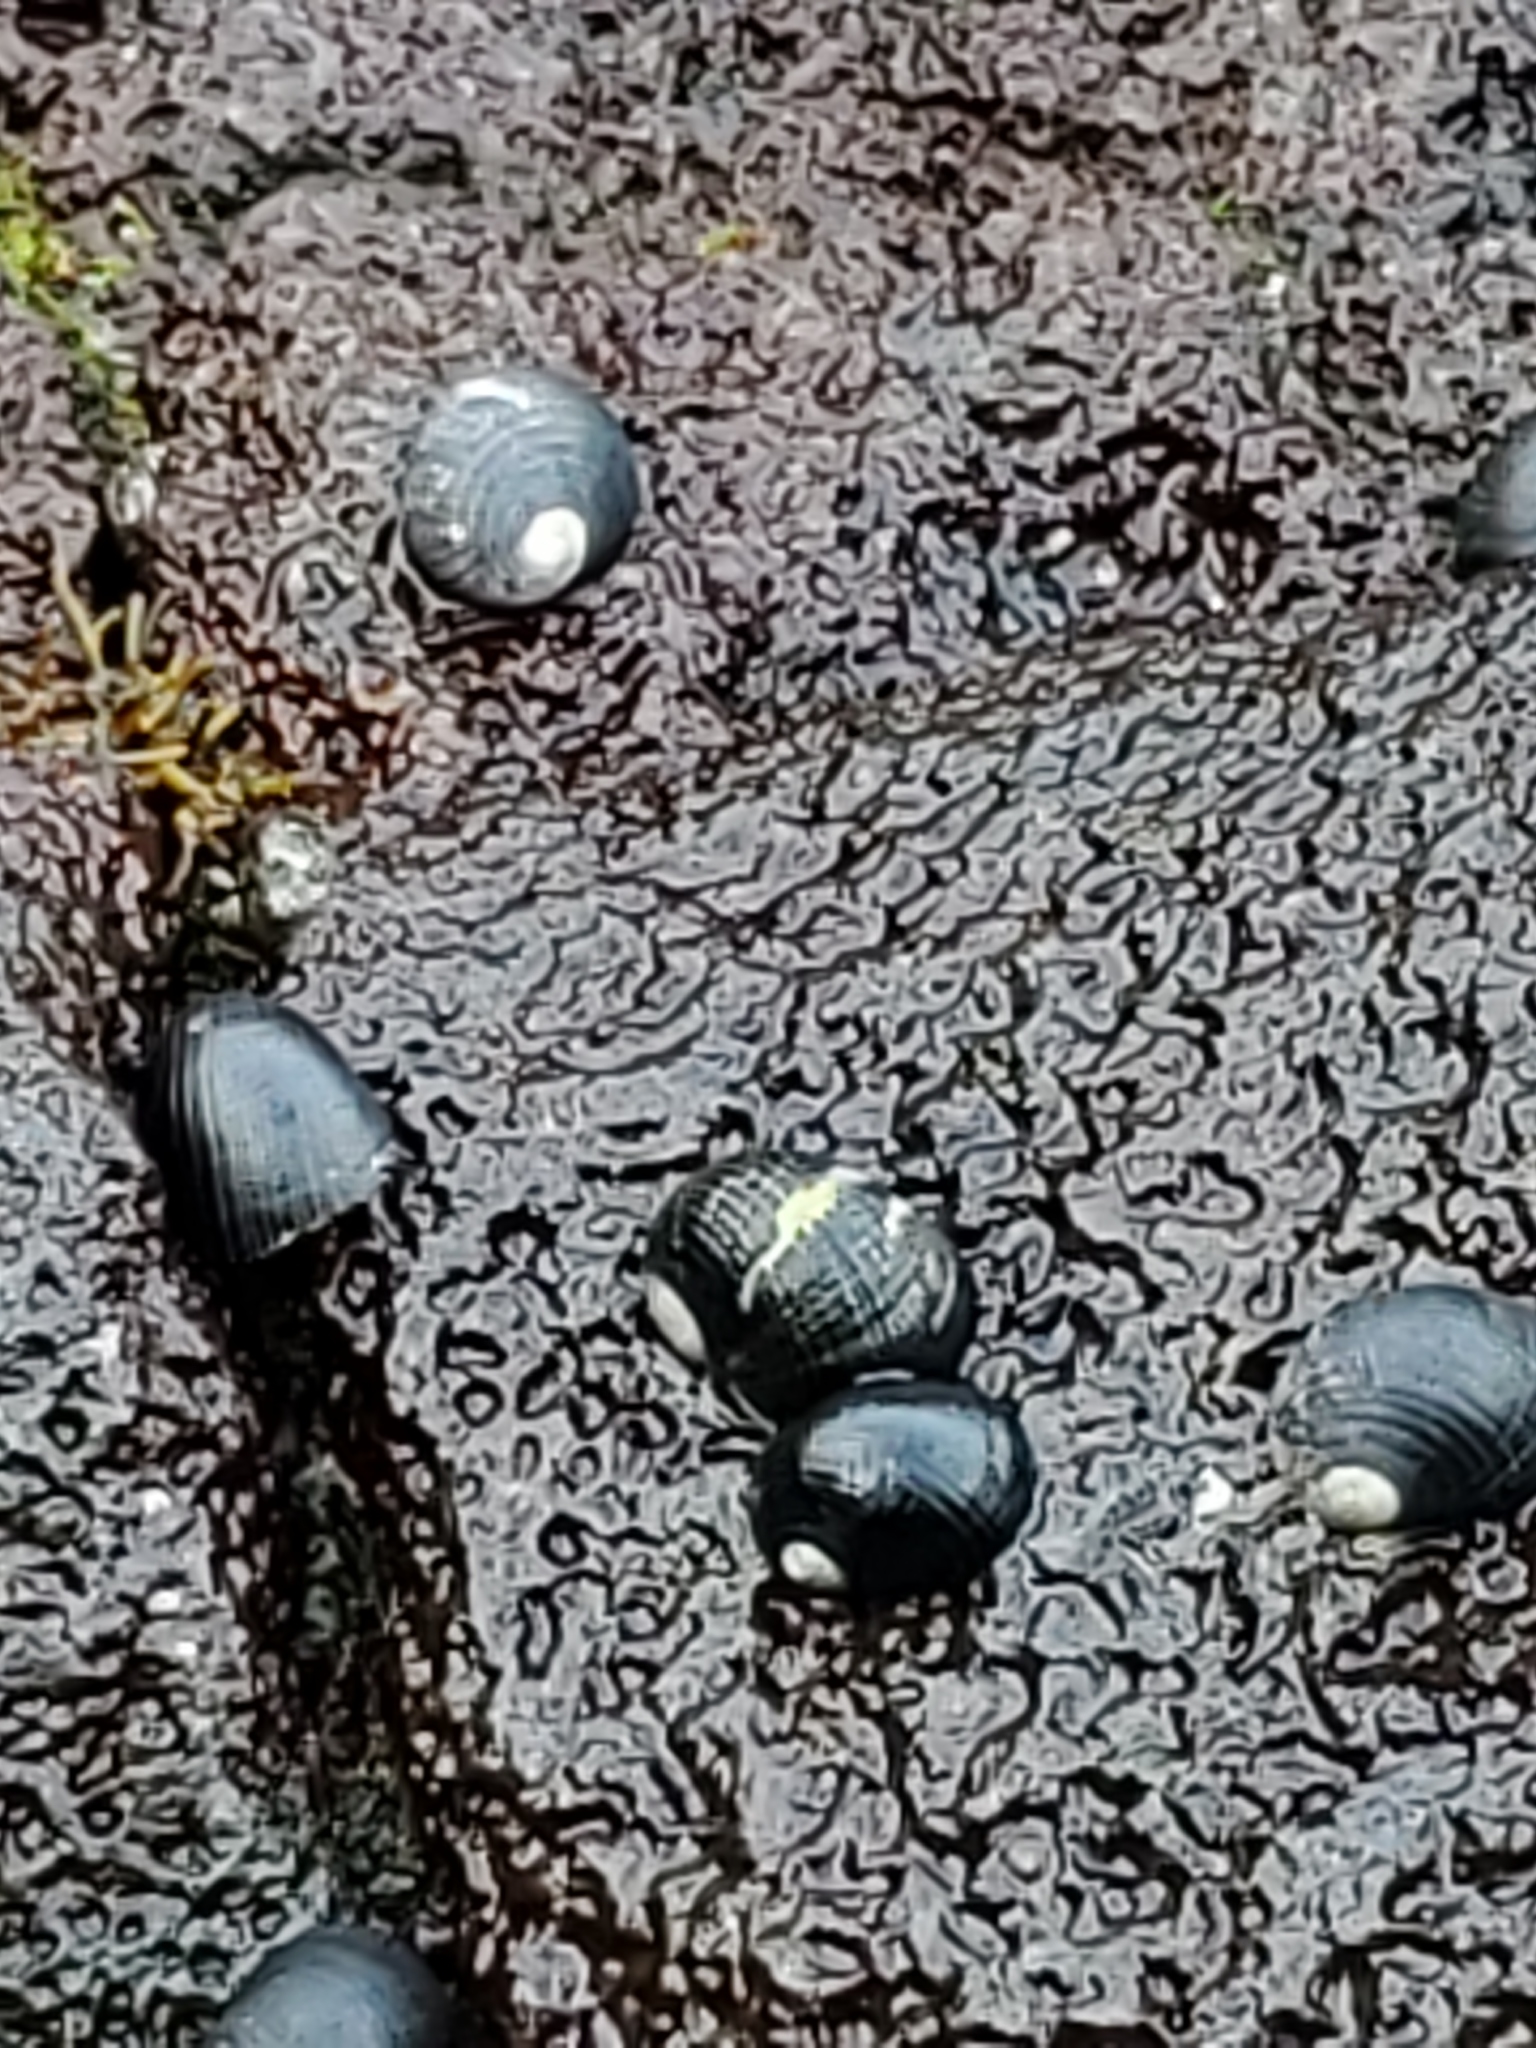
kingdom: Animalia
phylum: Mollusca
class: Gastropoda
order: Cycloneritida
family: Neritidae
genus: Nerita
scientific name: Nerita picea
